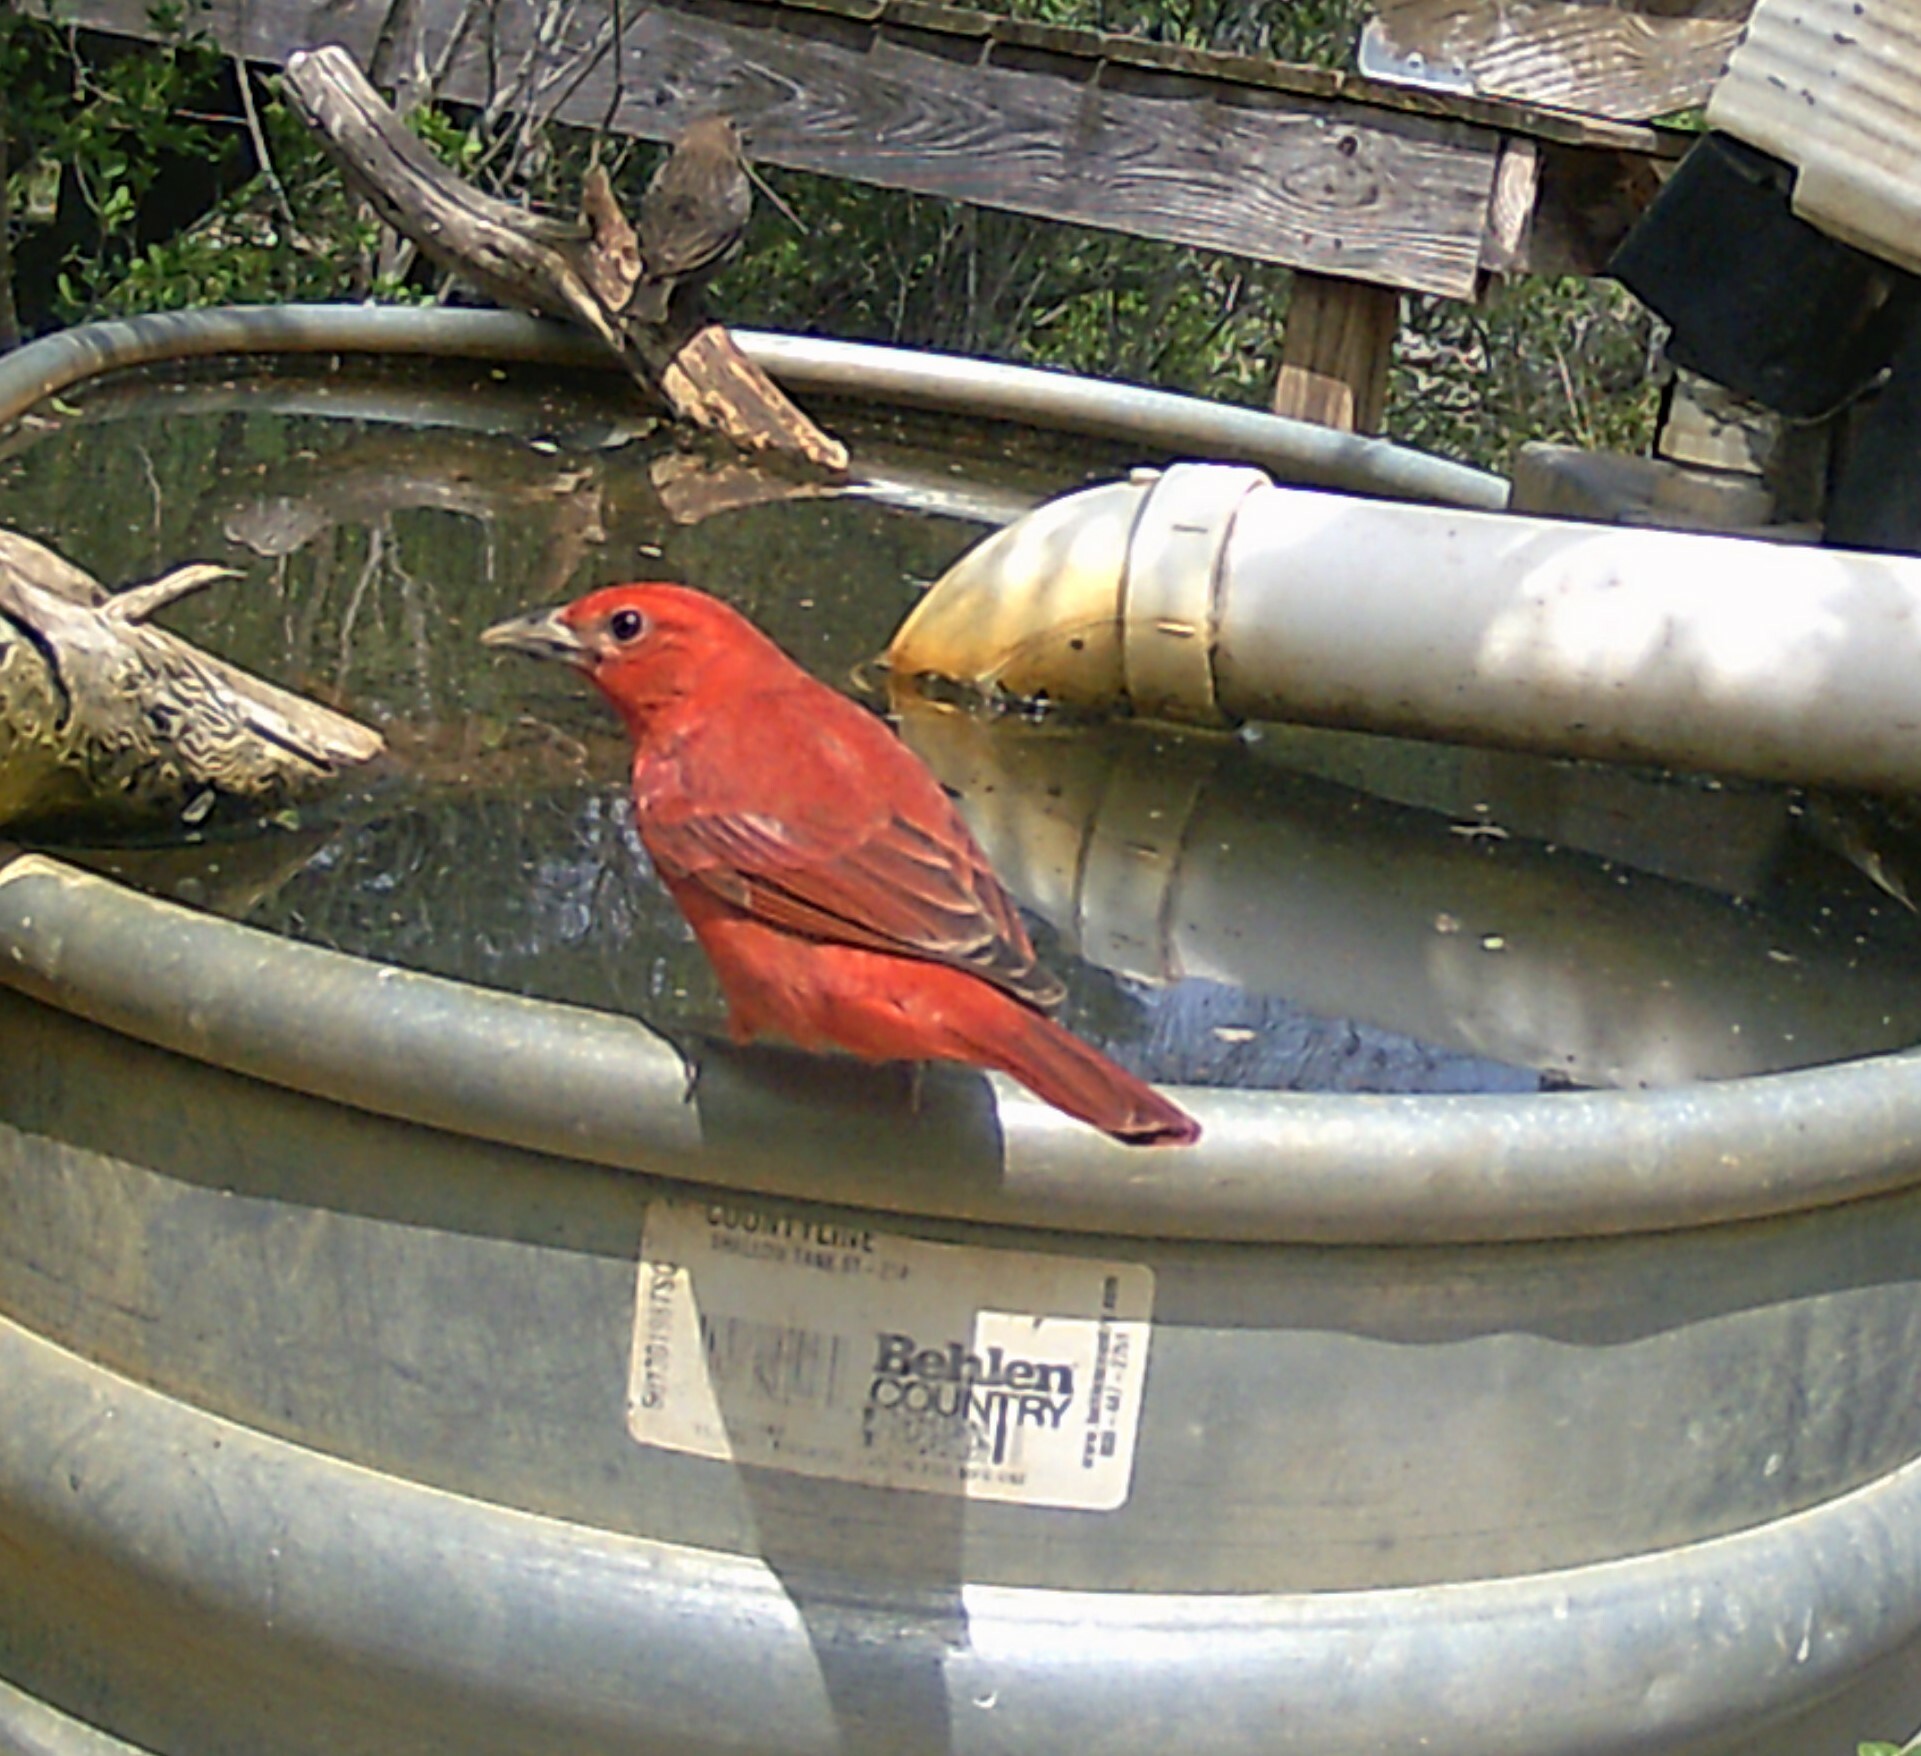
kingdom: Animalia
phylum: Chordata
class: Aves
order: Passeriformes
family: Cardinalidae
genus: Piranga
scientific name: Piranga rubra
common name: Summer tanager
